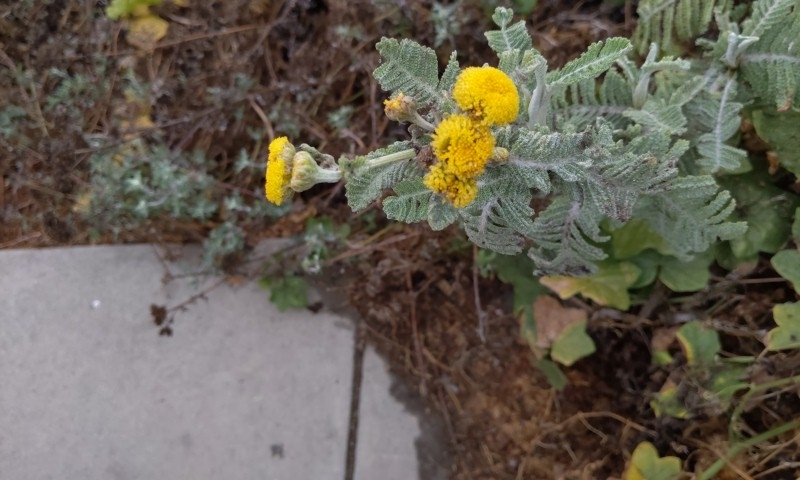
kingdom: Plantae
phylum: Tracheophyta
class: Magnoliopsida
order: Asterales
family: Asteraceae
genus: Tanacetum
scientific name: Tanacetum bipinnatum
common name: Dwarf tansy
